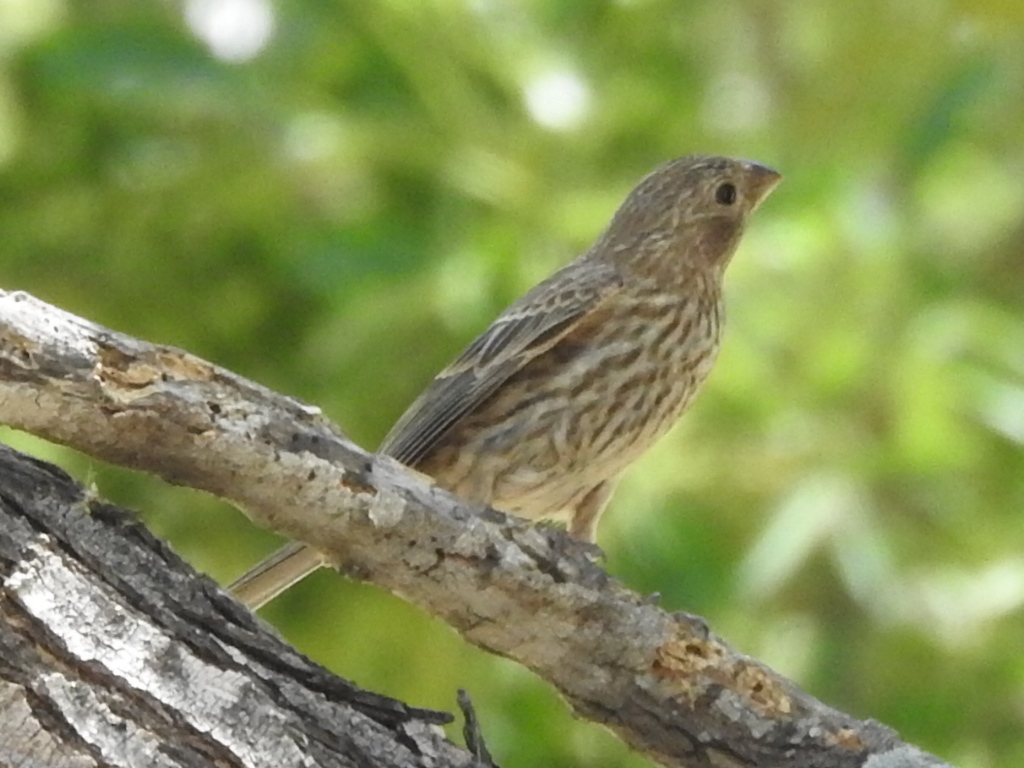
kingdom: Animalia
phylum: Chordata
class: Aves
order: Passeriformes
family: Fringillidae
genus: Haemorhous
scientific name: Haemorhous mexicanus
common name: House finch
